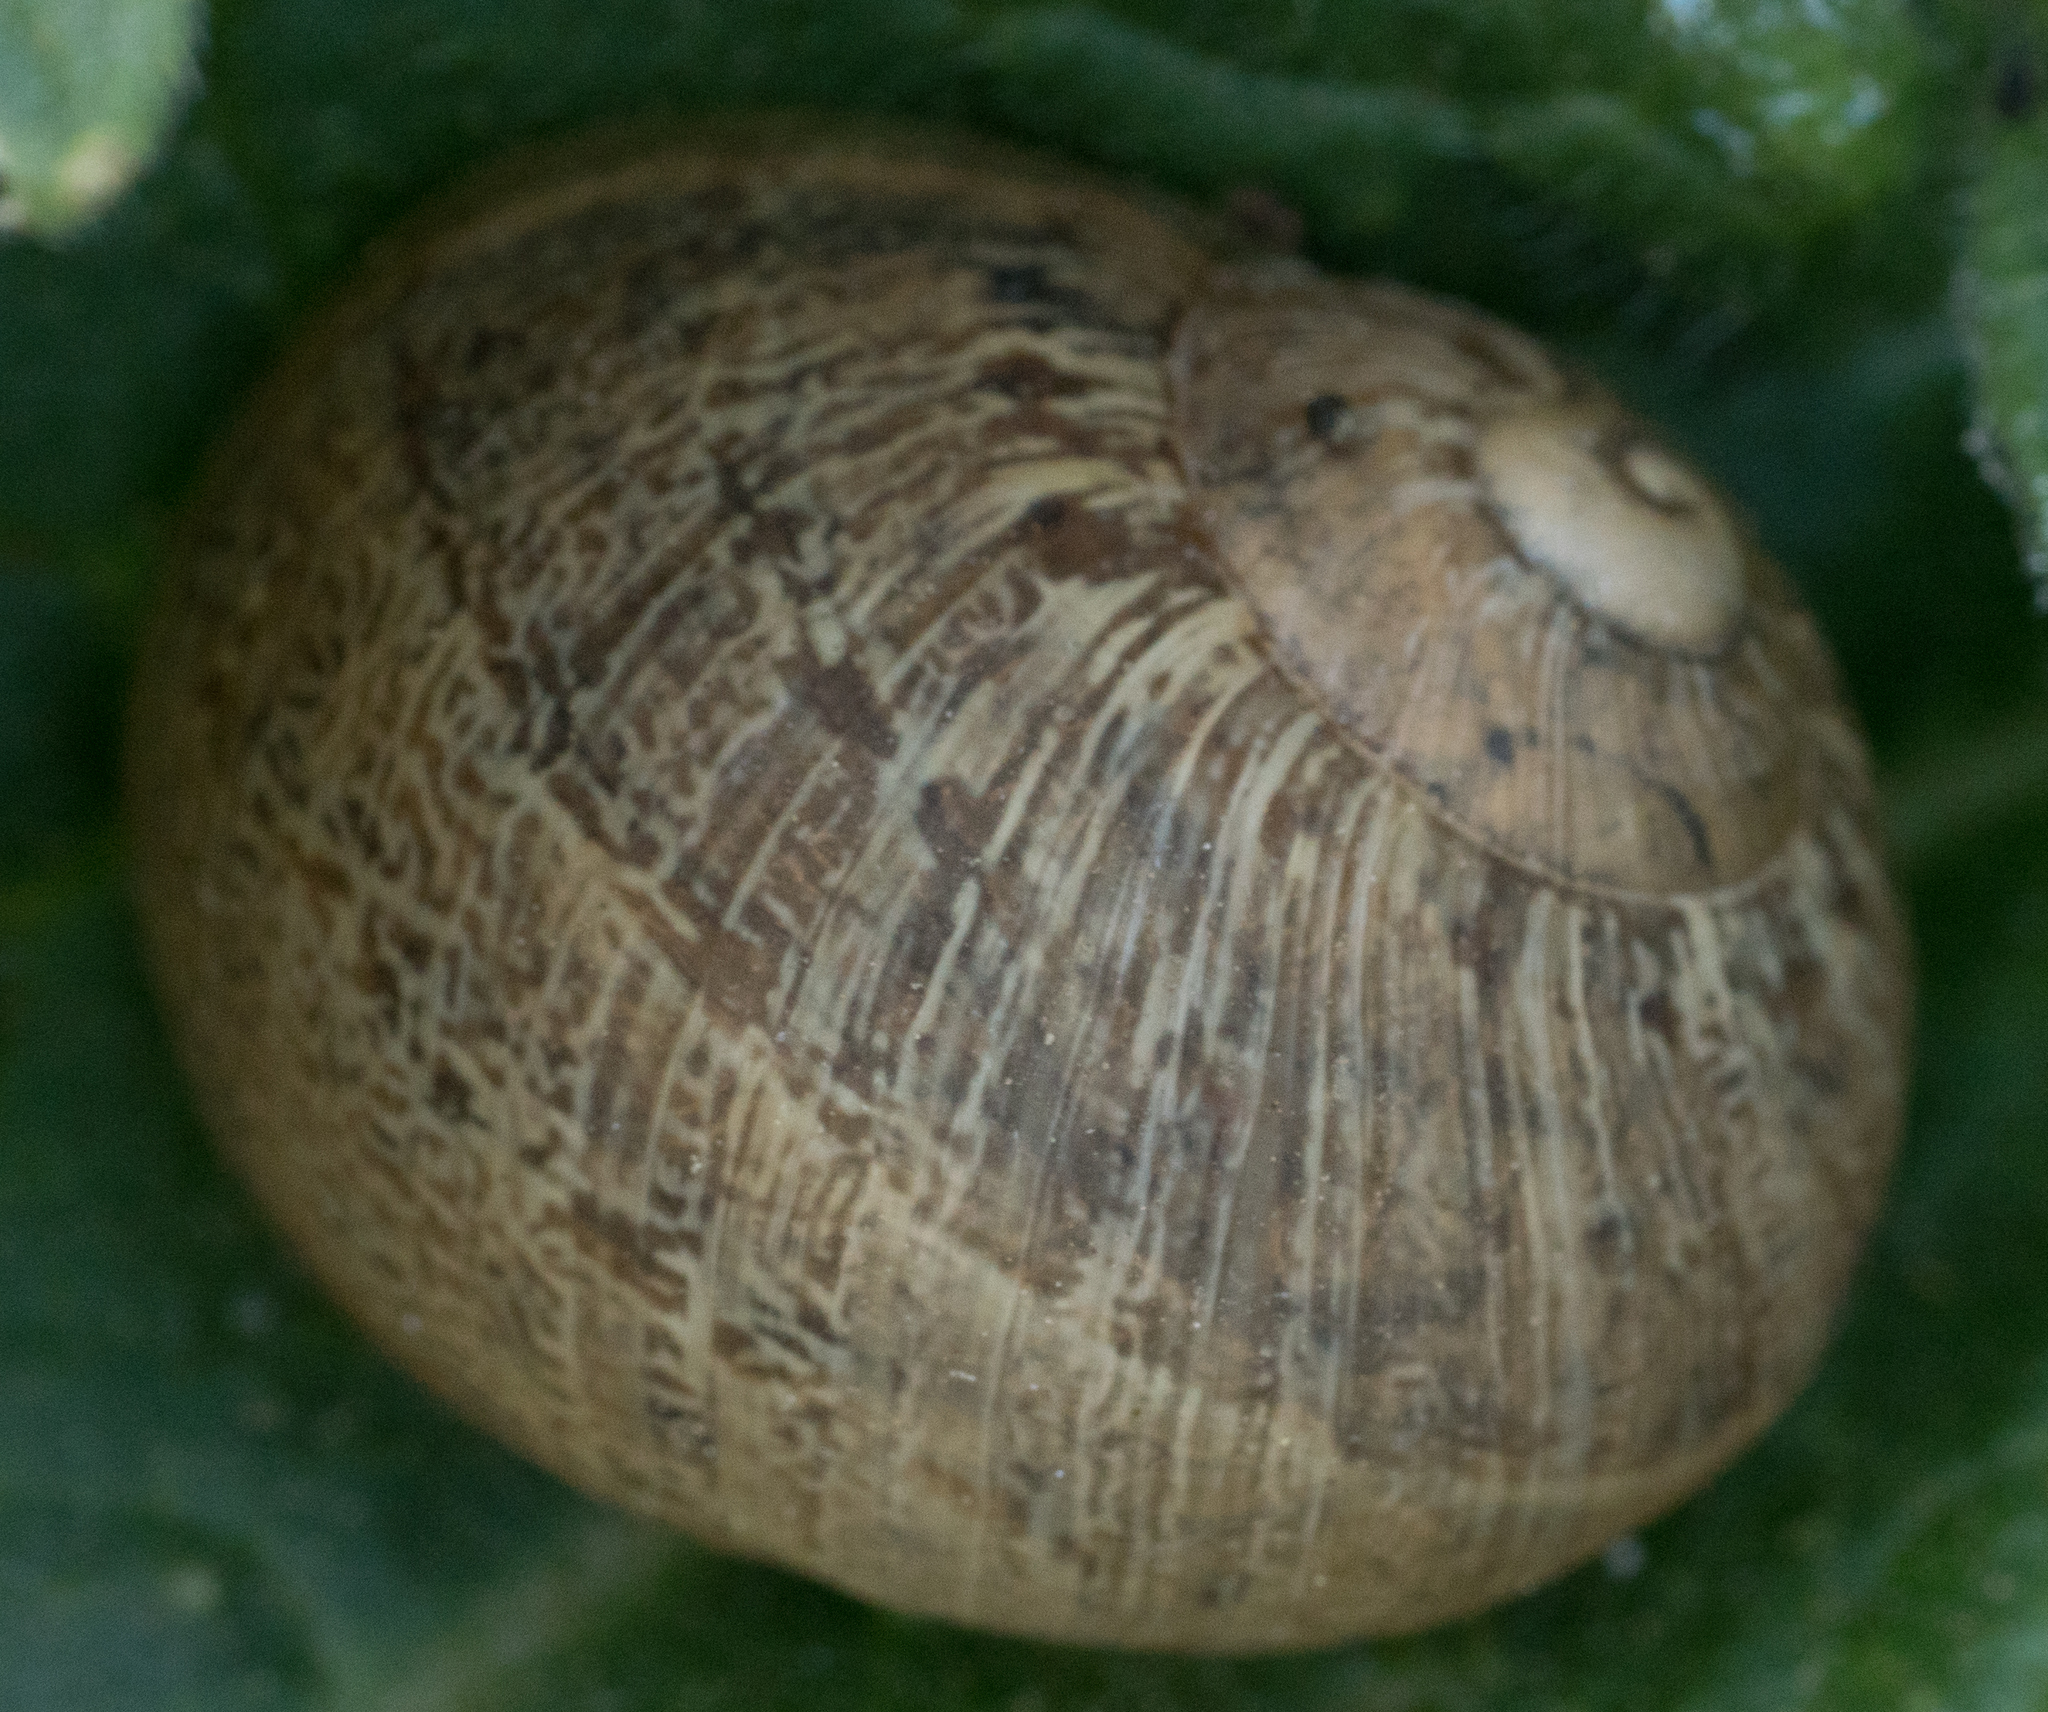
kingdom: Animalia
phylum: Mollusca
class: Gastropoda
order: Stylommatophora
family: Helicidae
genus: Cornu
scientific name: Cornu aspersum
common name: Brown garden snail
